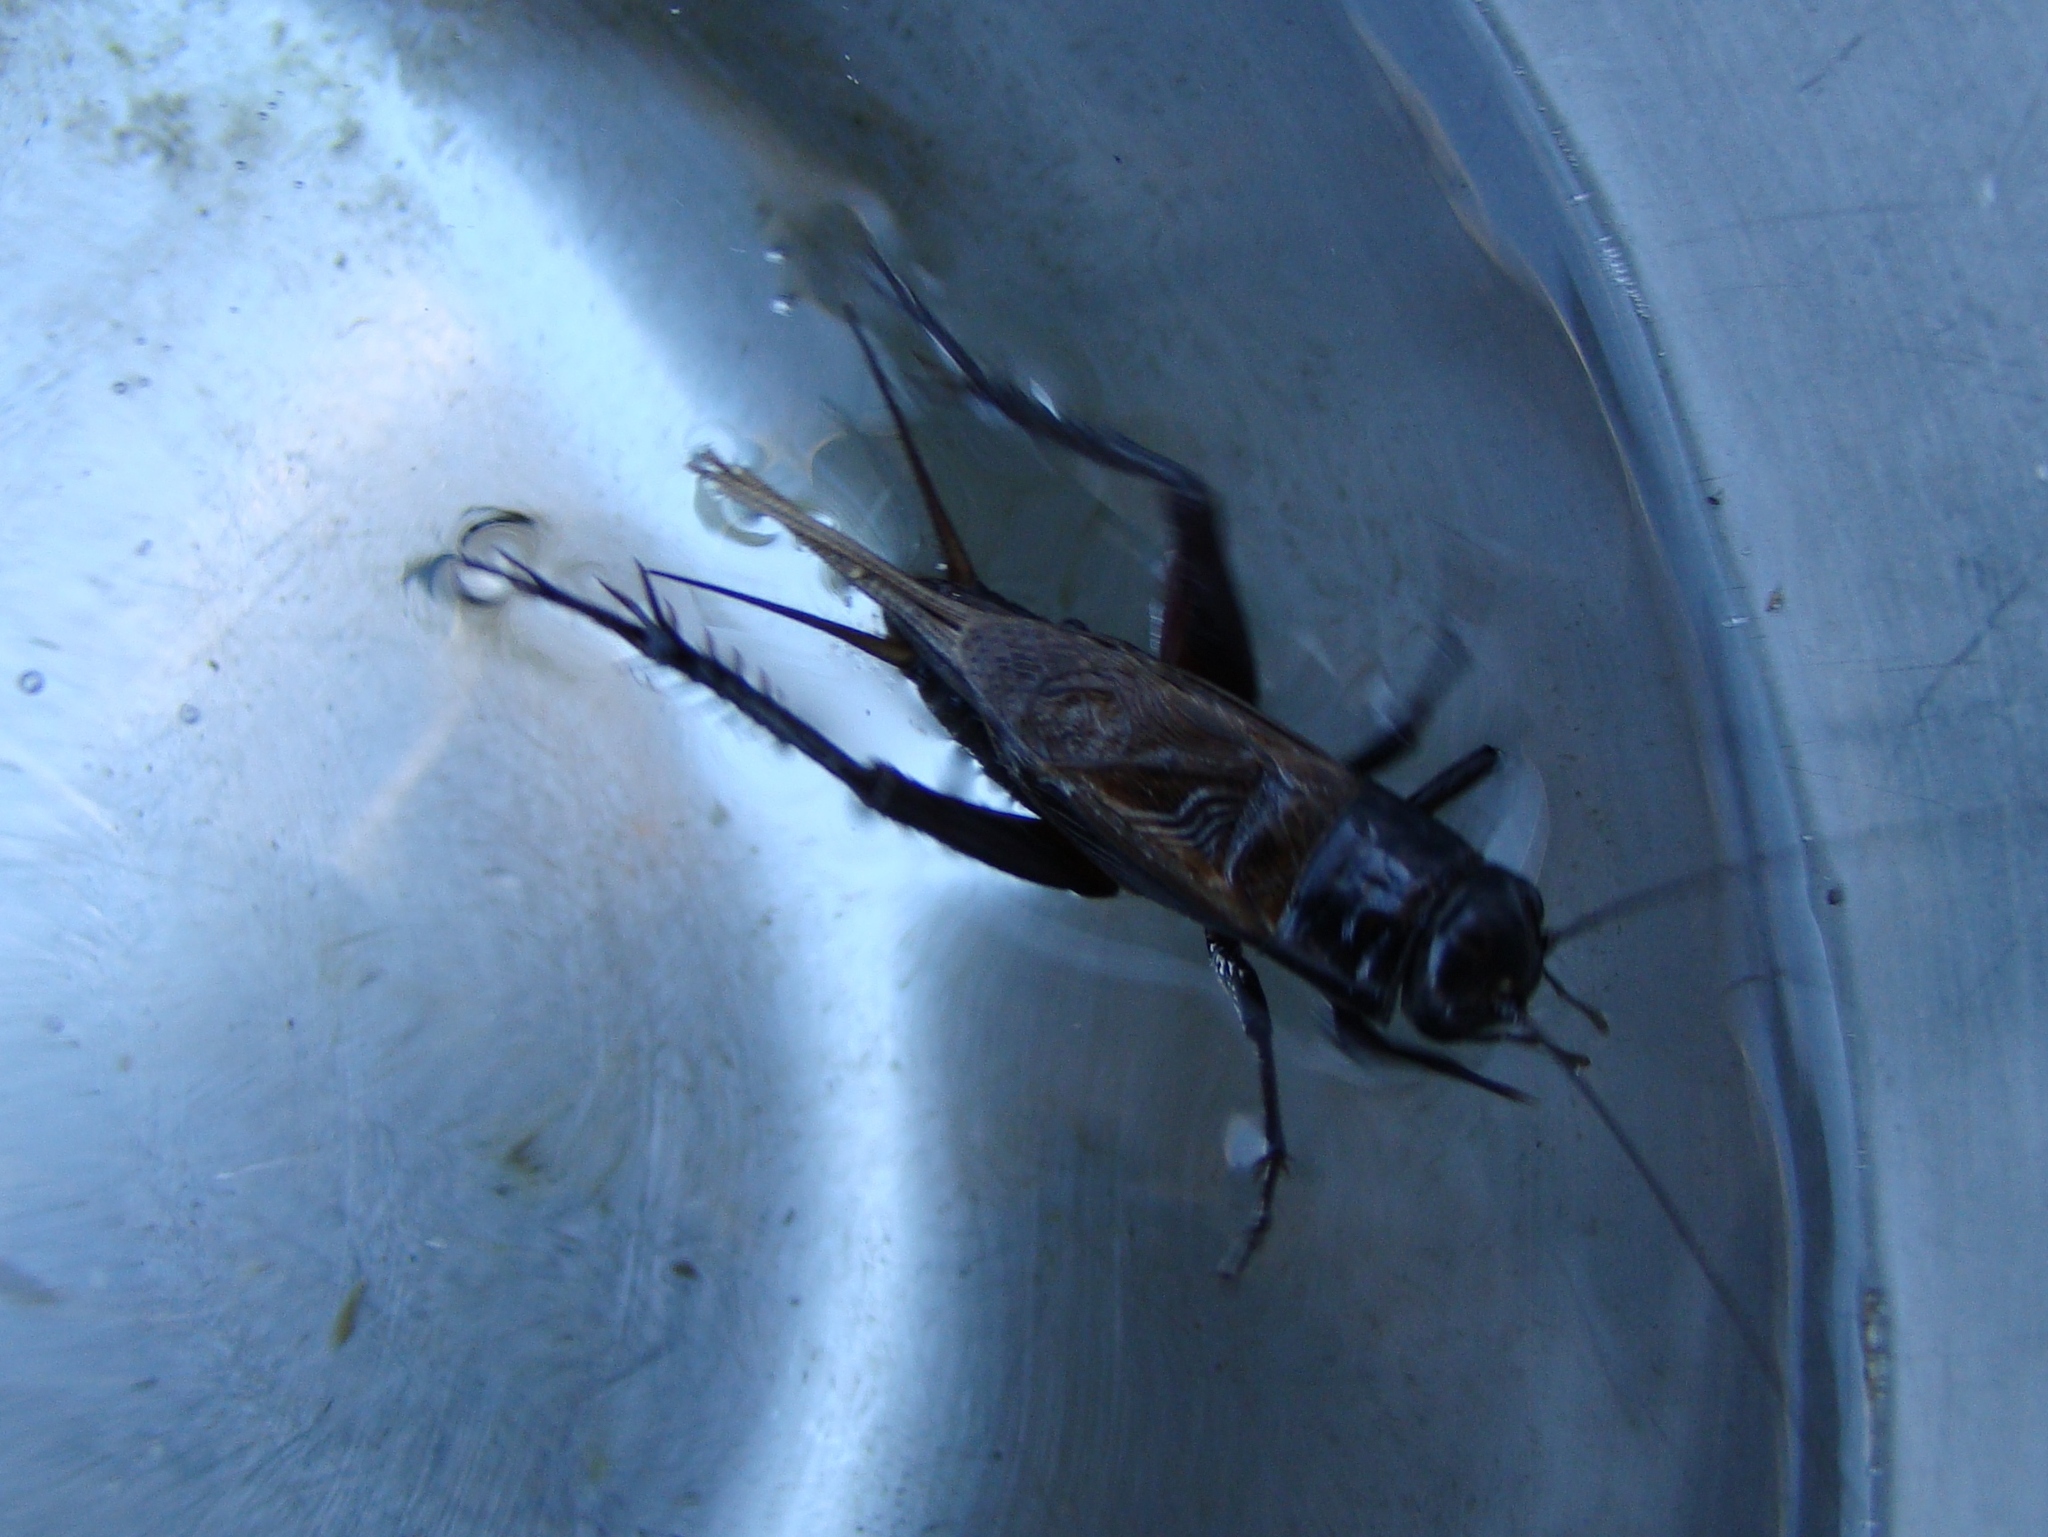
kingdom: Animalia
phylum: Arthropoda
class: Insecta
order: Orthoptera
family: Gryllidae
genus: Teleogryllus
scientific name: Teleogryllus commodus
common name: Black field cricket
